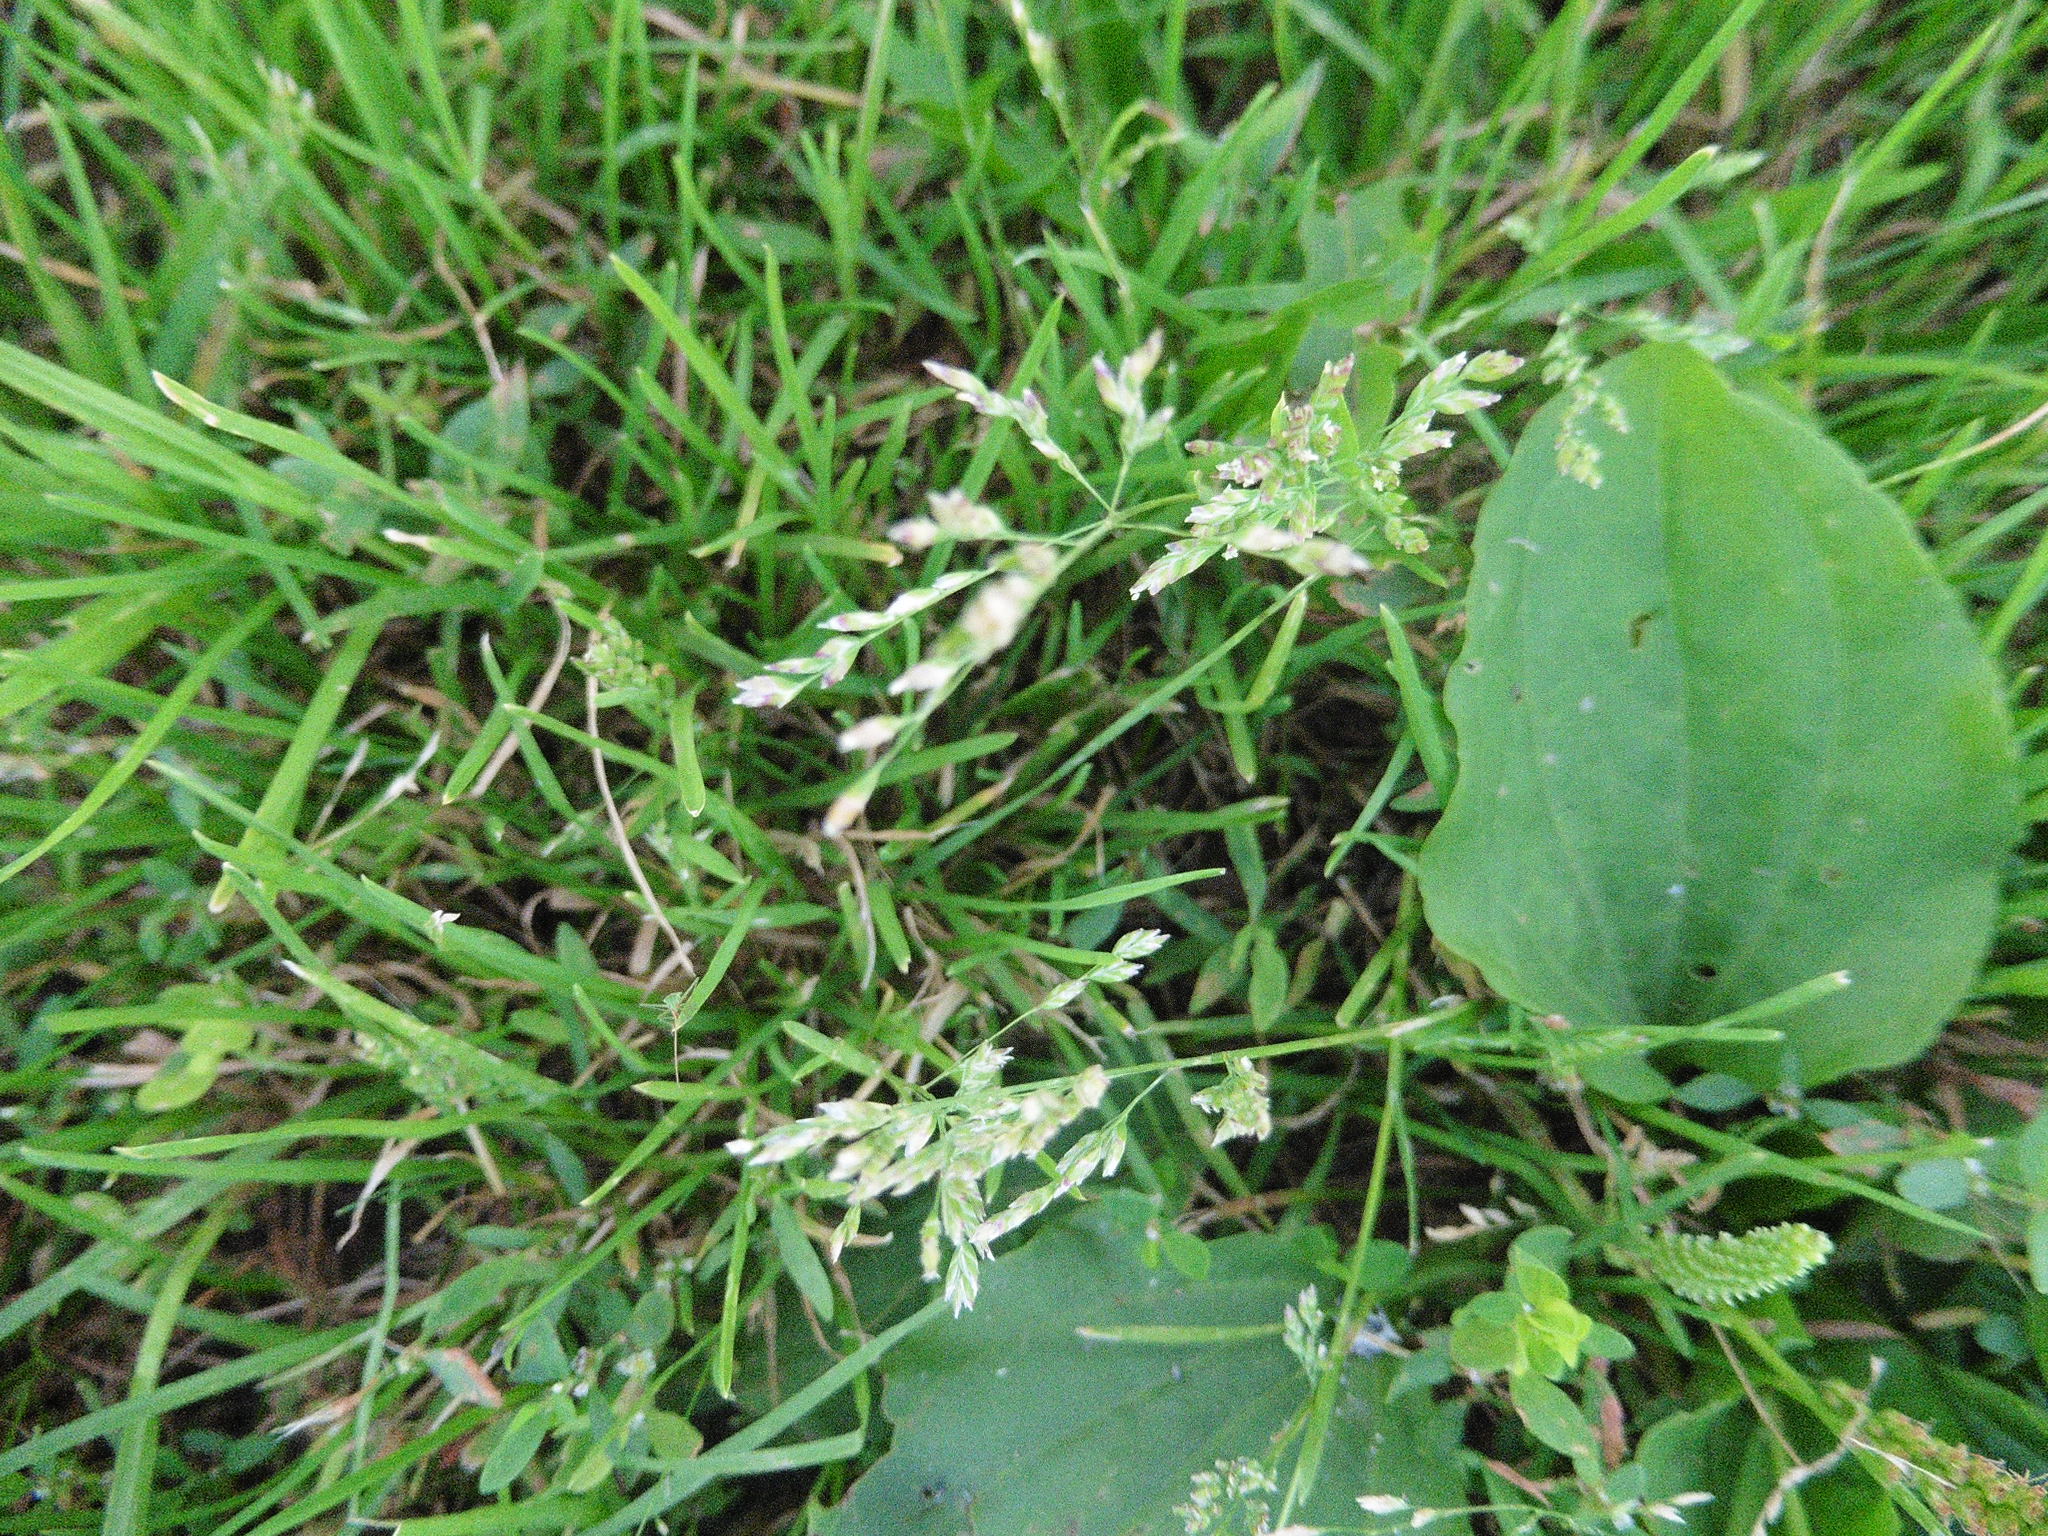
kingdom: Plantae
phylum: Tracheophyta
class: Liliopsida
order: Poales
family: Poaceae
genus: Poa
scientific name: Poa annua
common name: Annual bluegrass
